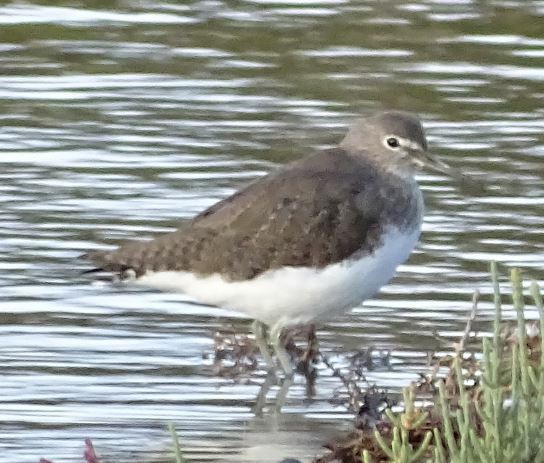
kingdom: Animalia
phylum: Chordata
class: Aves
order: Charadriiformes
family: Scolopacidae
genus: Tringa
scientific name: Tringa ochropus
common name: Green sandpiper
